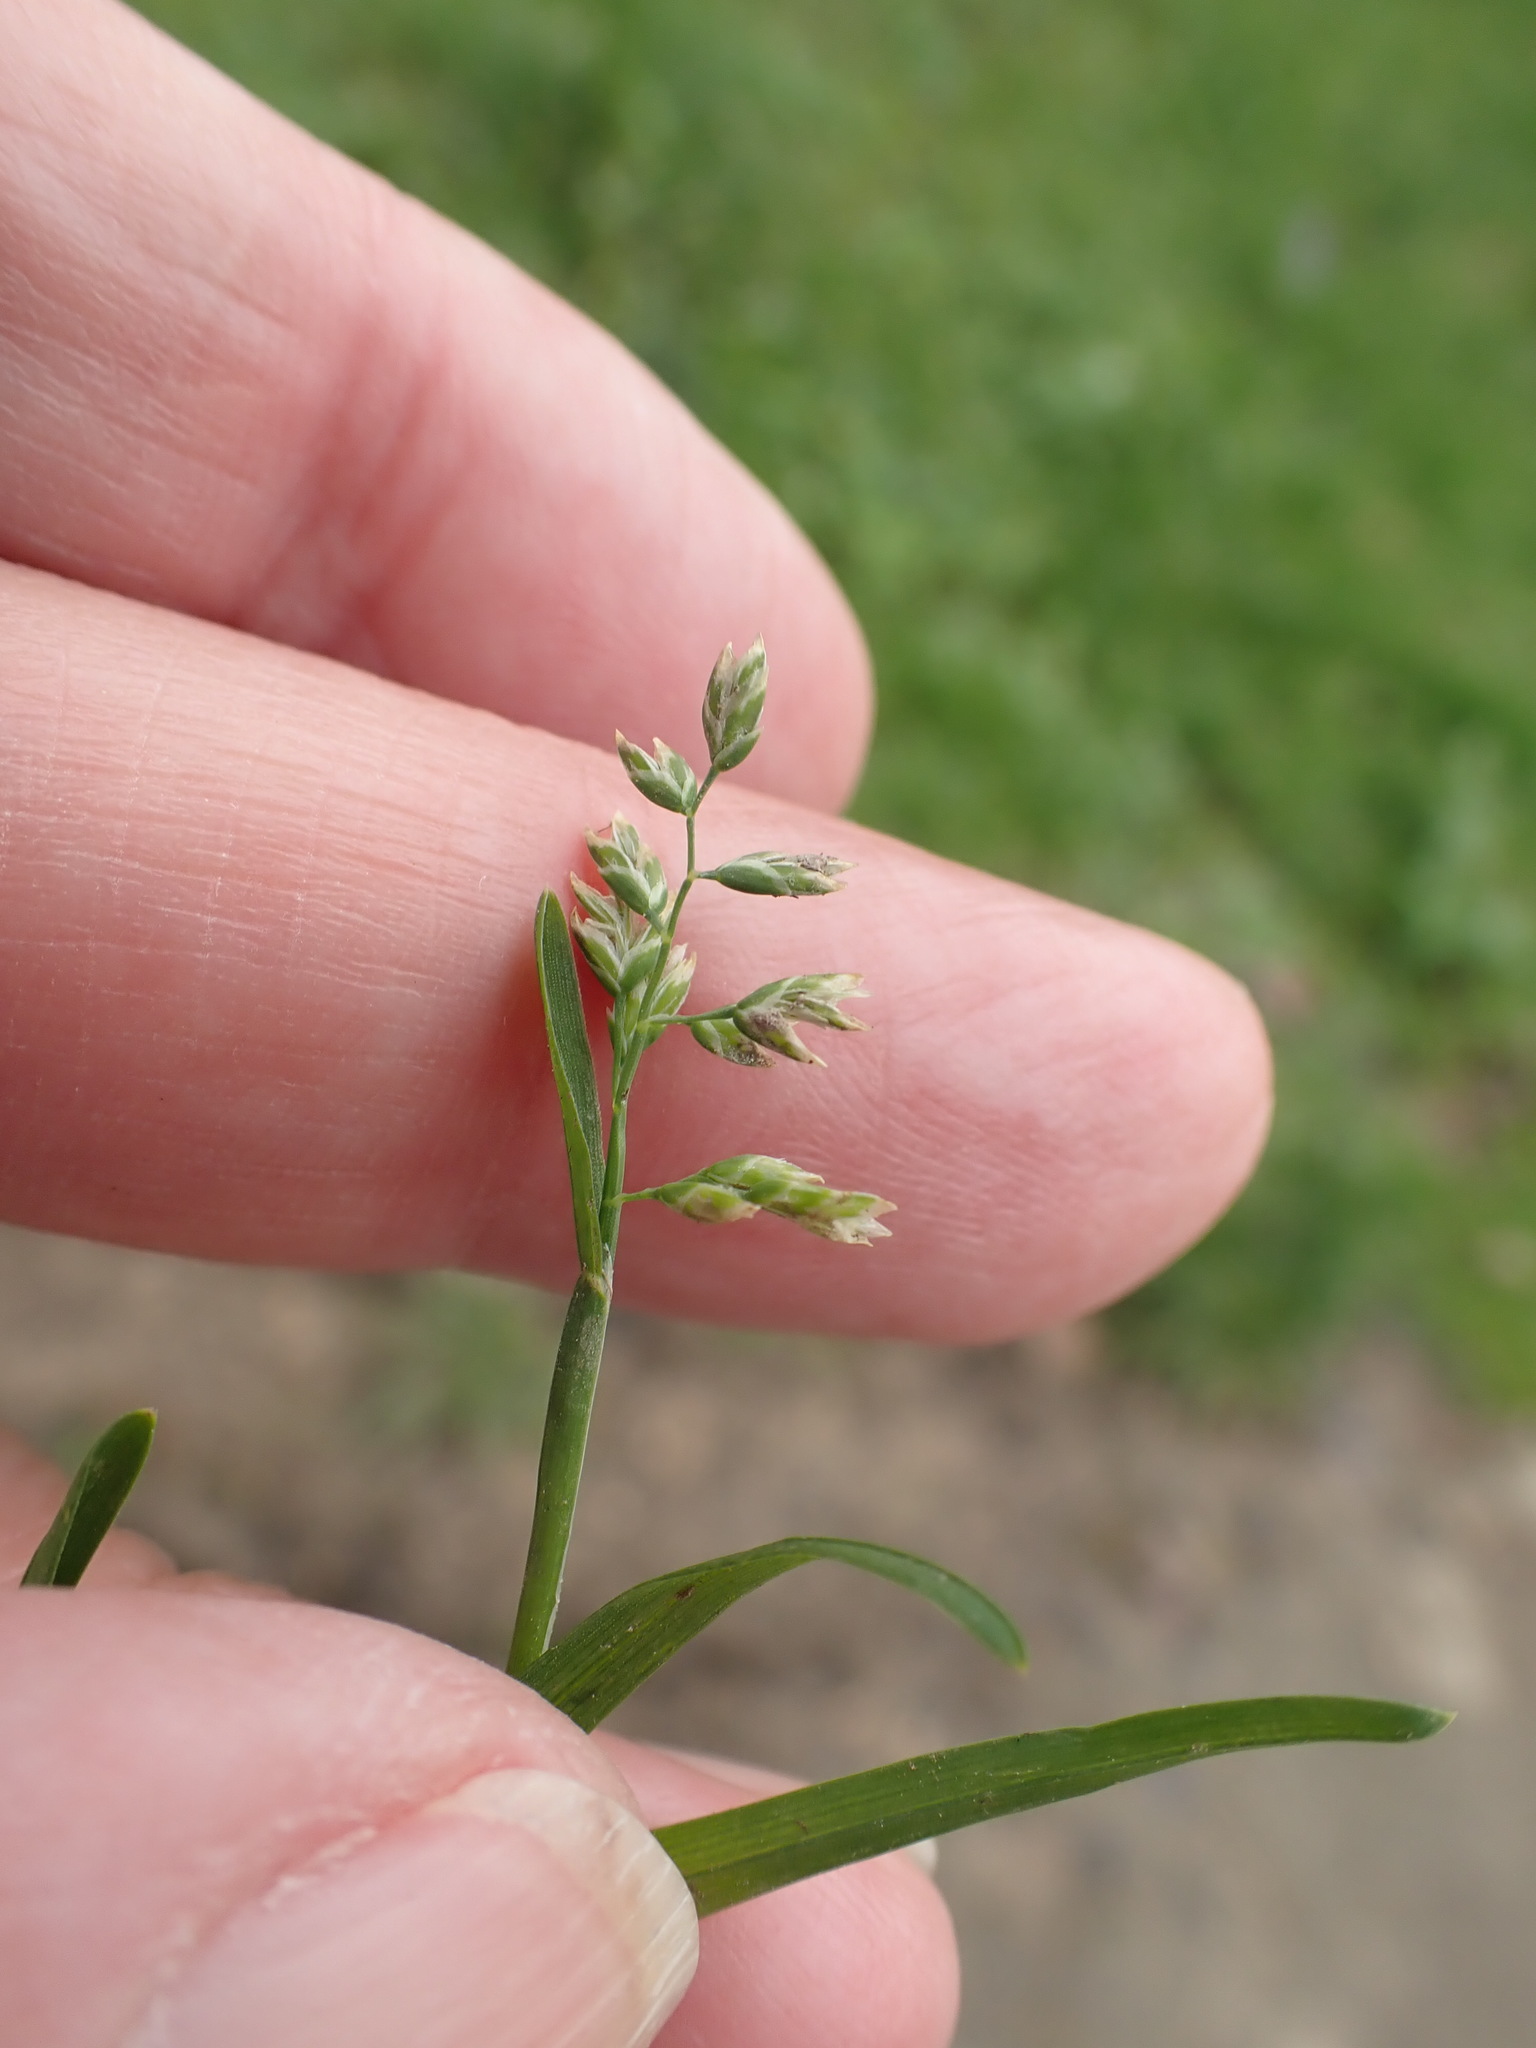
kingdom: Plantae
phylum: Tracheophyta
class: Liliopsida
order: Poales
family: Poaceae
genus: Poa
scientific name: Poa annua
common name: Annual bluegrass
